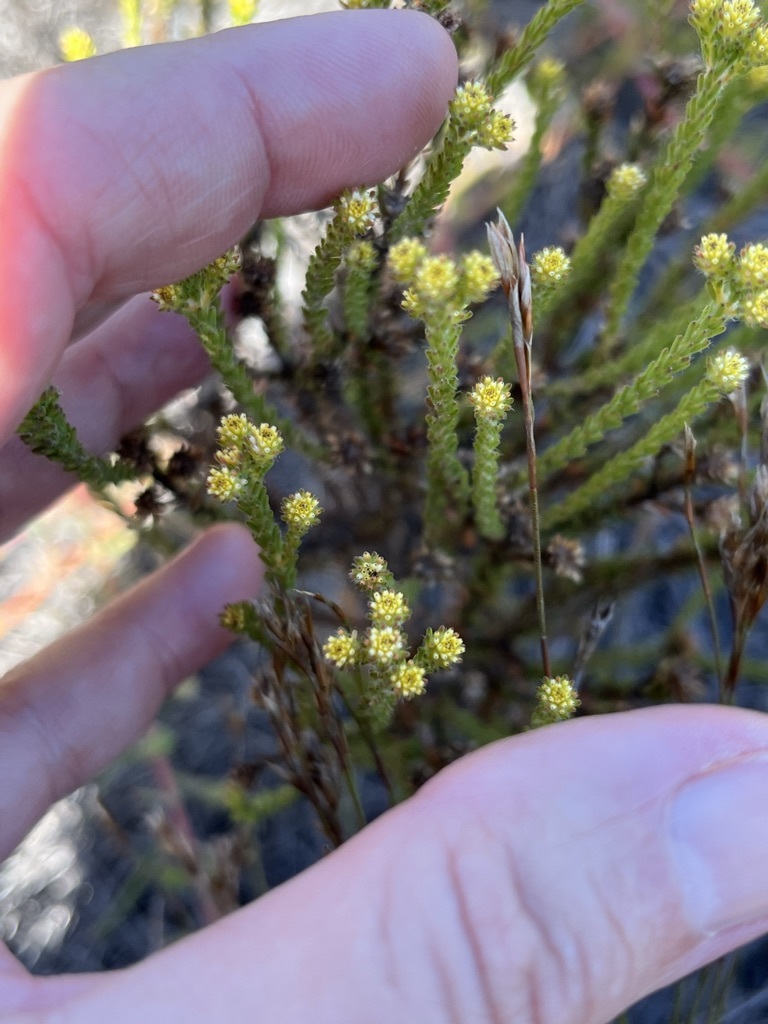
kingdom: Plantae
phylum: Tracheophyta
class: Magnoliopsida
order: Bruniales
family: Bruniaceae
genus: Staavia
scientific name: Staavia radiata
